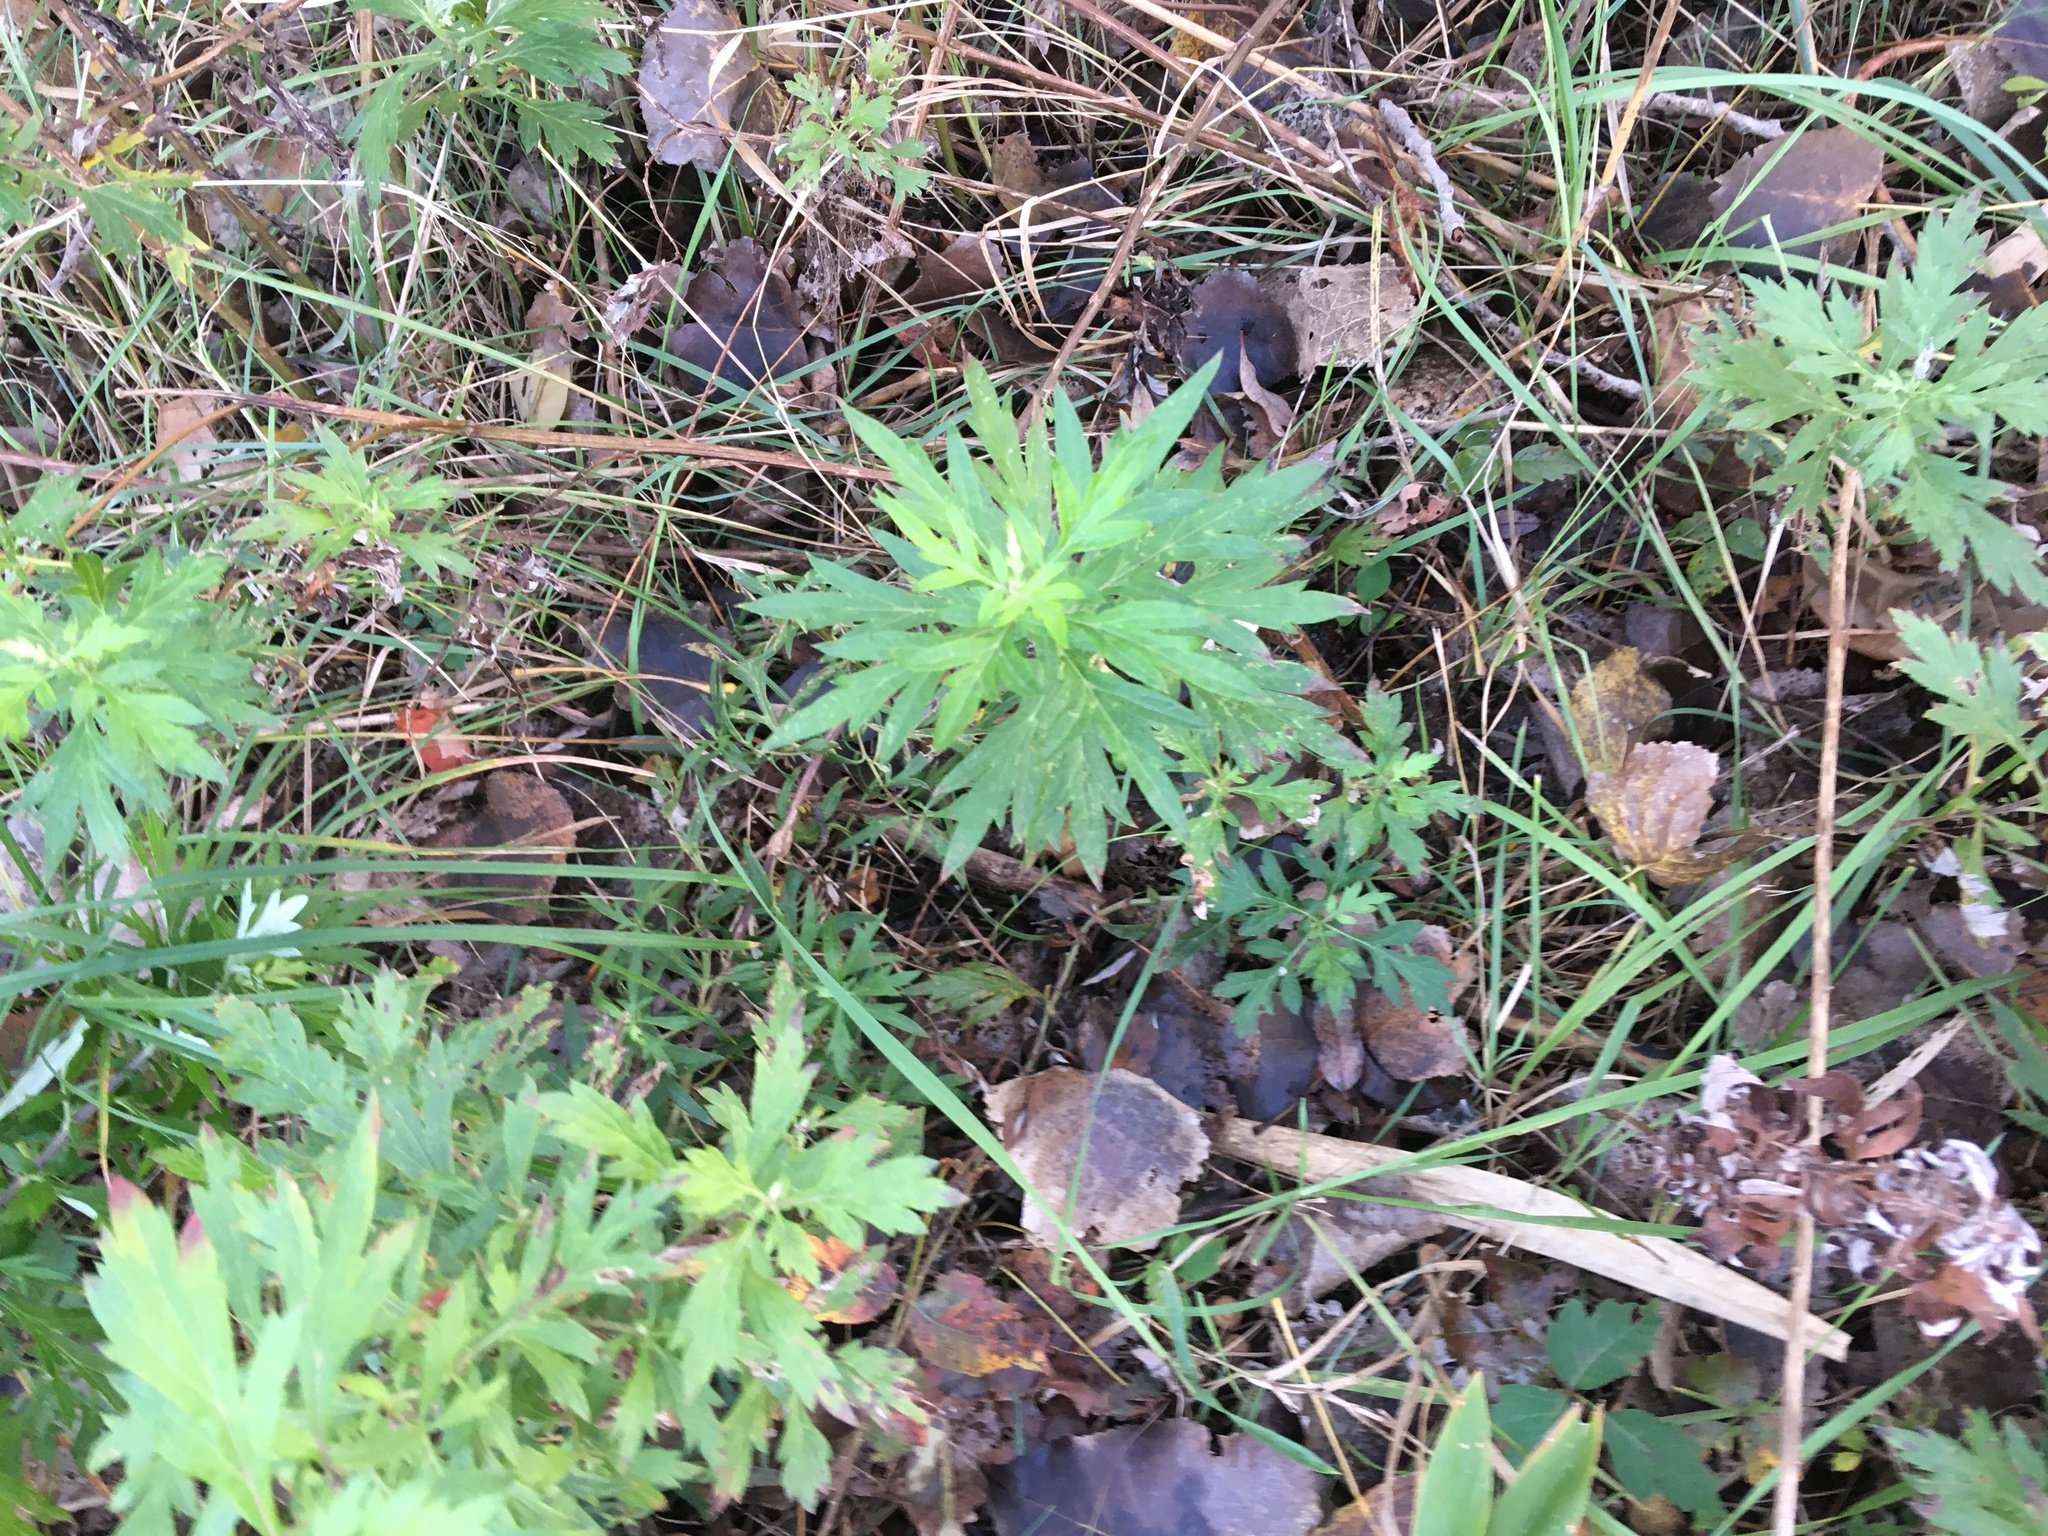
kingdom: Plantae
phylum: Tracheophyta
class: Magnoliopsida
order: Asterales
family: Asteraceae
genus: Artemisia
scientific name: Artemisia vulgaris
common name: Mugwort
